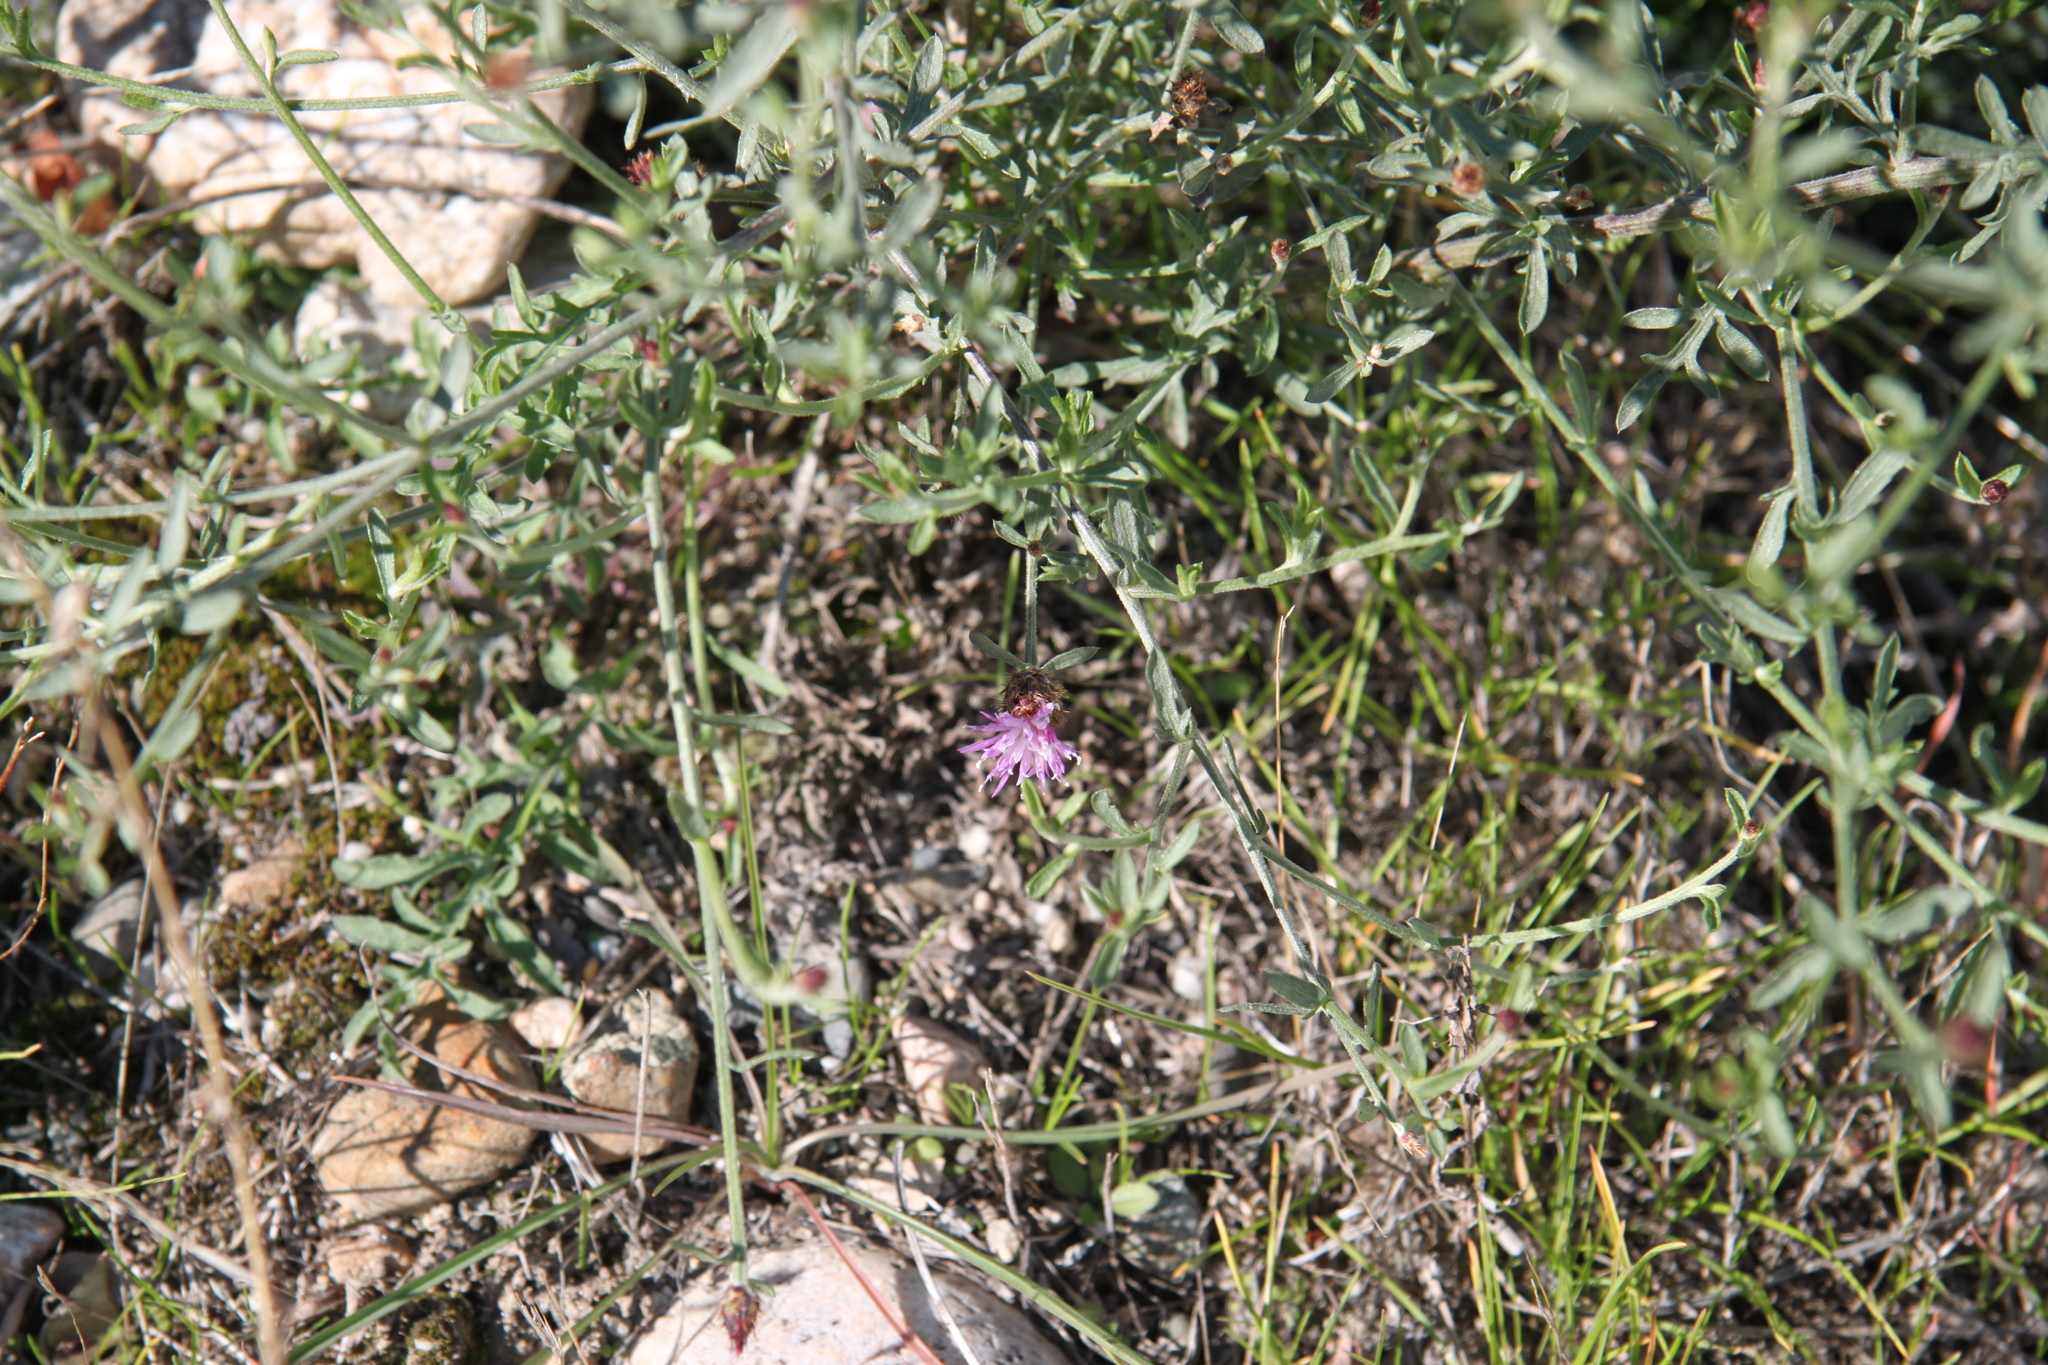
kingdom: Plantae
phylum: Tracheophyta
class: Magnoliopsida
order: Asterales
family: Asteraceae
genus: Centaurea
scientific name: Centaurea stoebe
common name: Spotted knapweed
